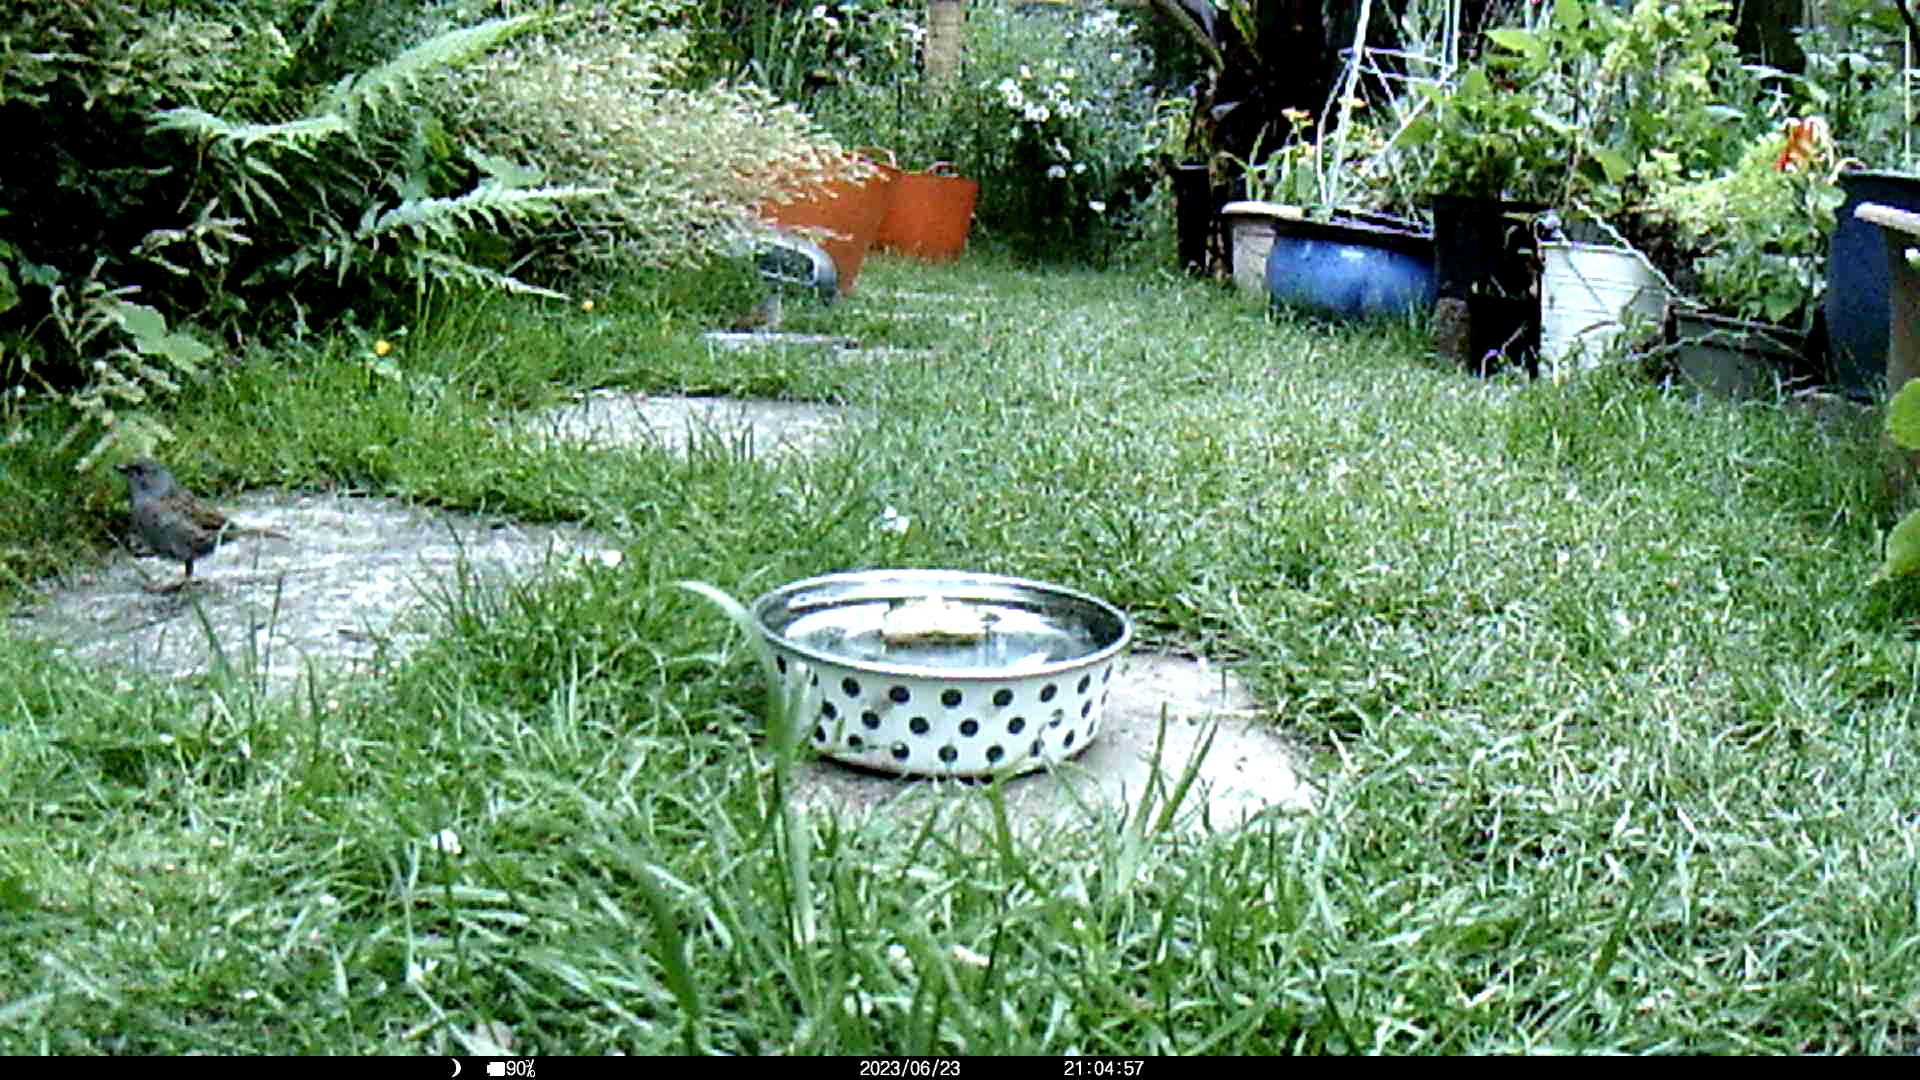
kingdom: Animalia
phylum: Chordata
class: Aves
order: Passeriformes
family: Prunellidae
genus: Prunella
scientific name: Prunella modularis
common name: Dunnock
